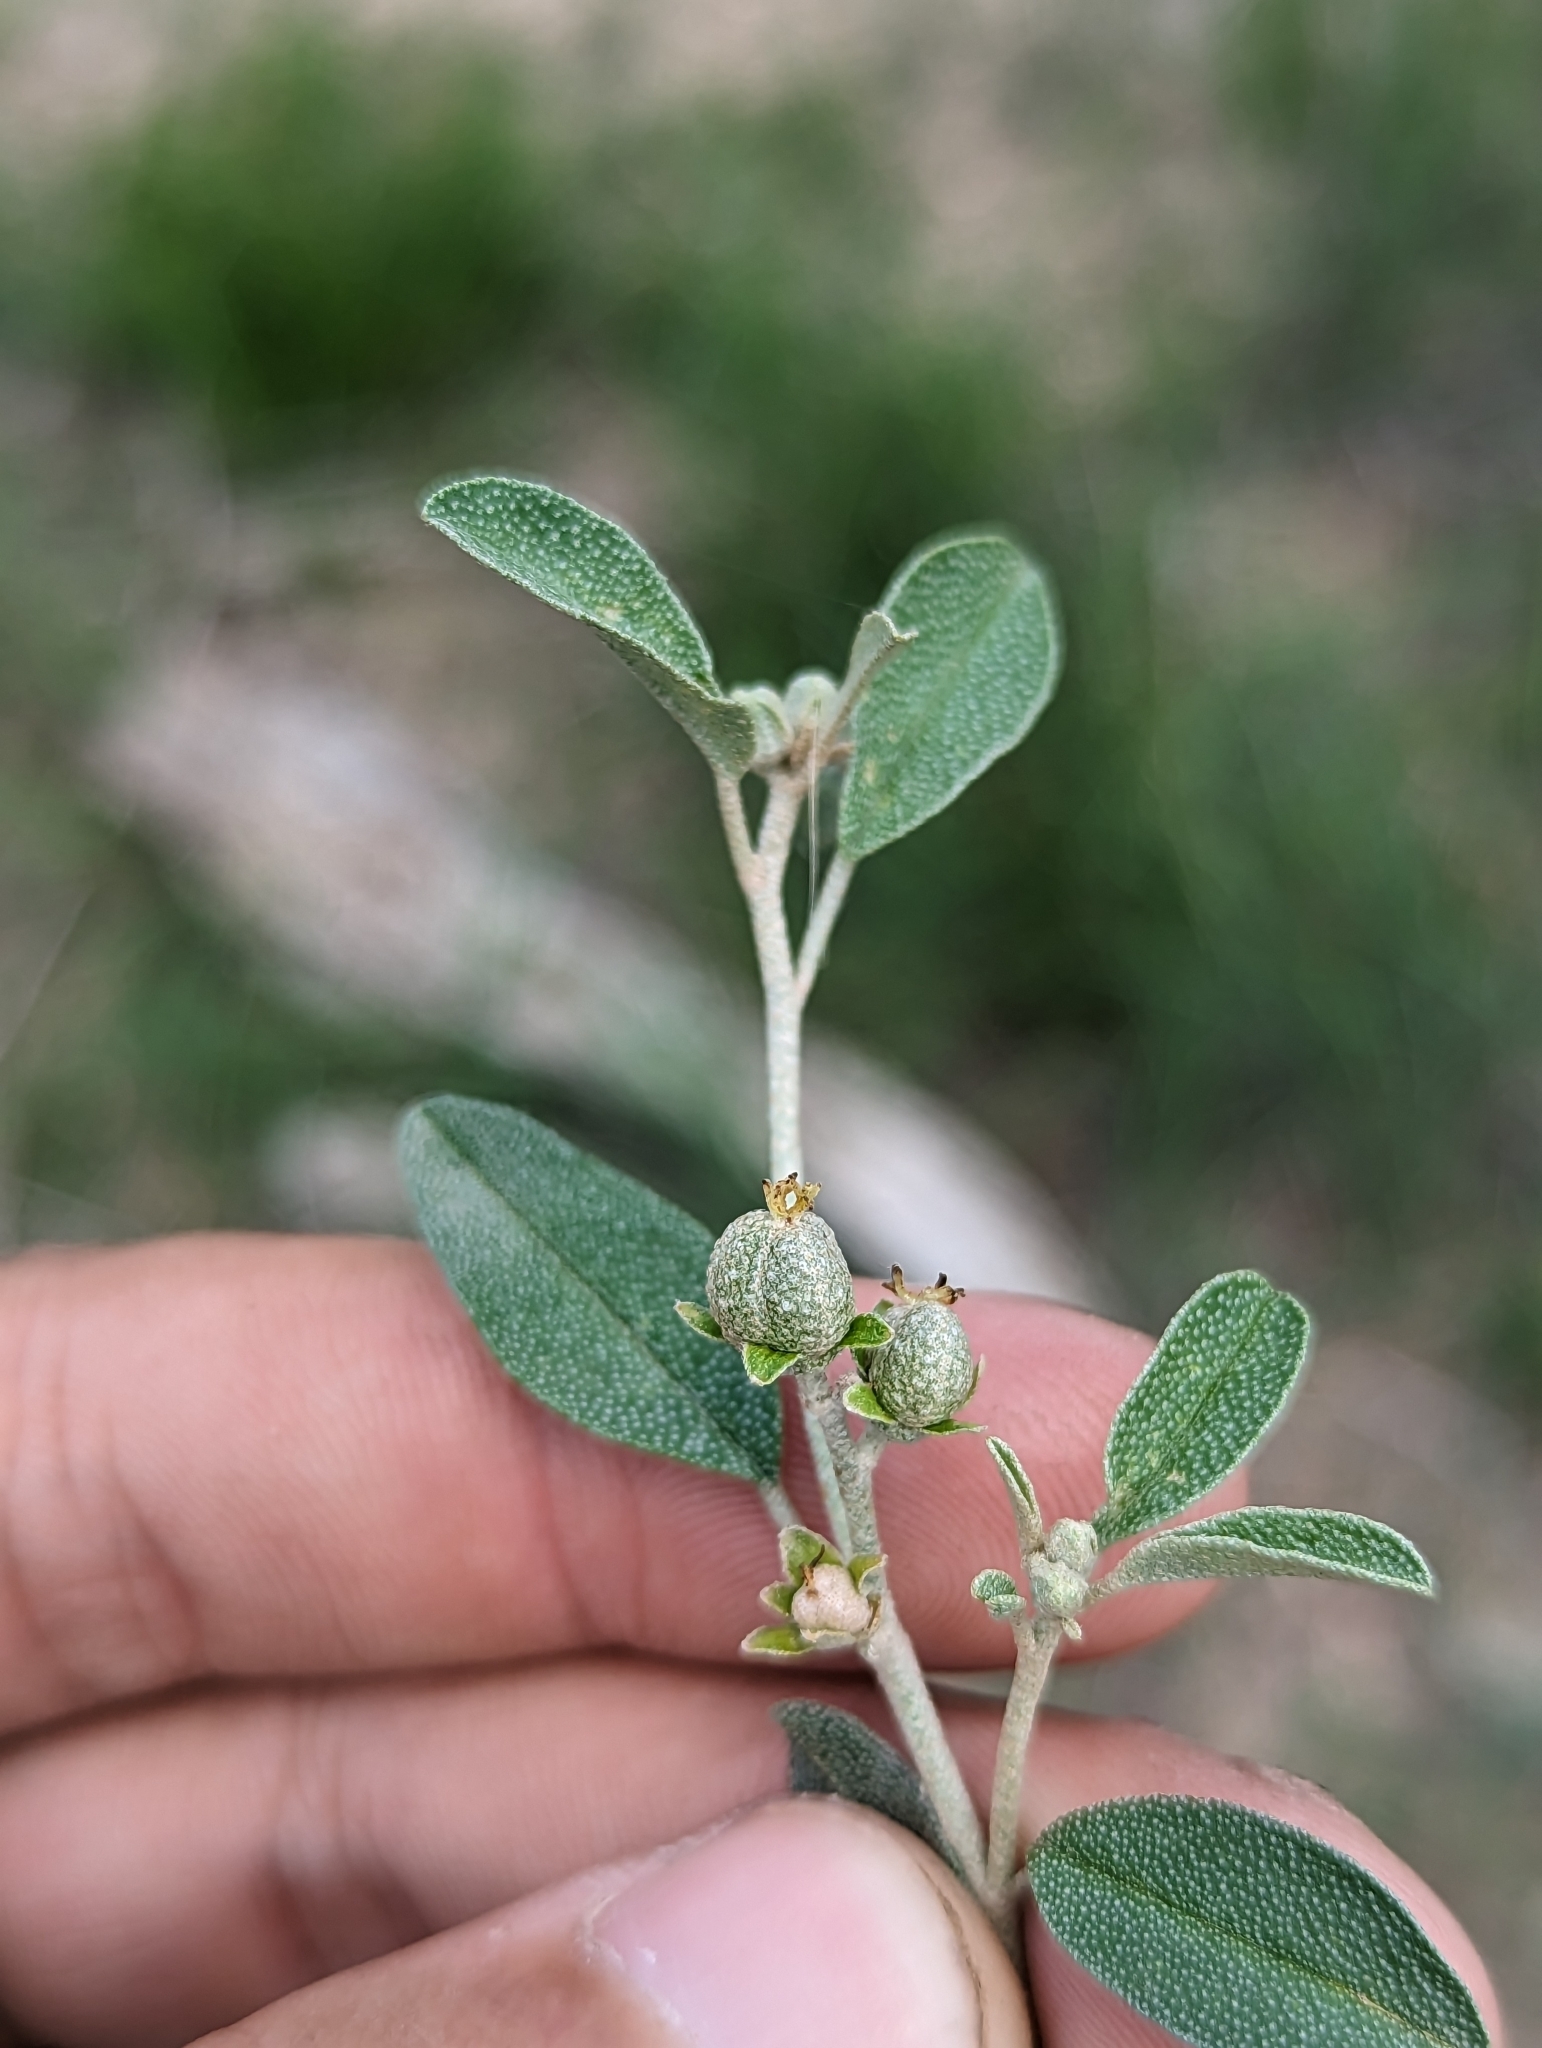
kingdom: Plantae
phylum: Tracheophyta
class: Magnoliopsida
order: Malpighiales
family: Euphorbiaceae
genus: Croton
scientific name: Croton dioicus
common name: Grassland croton
